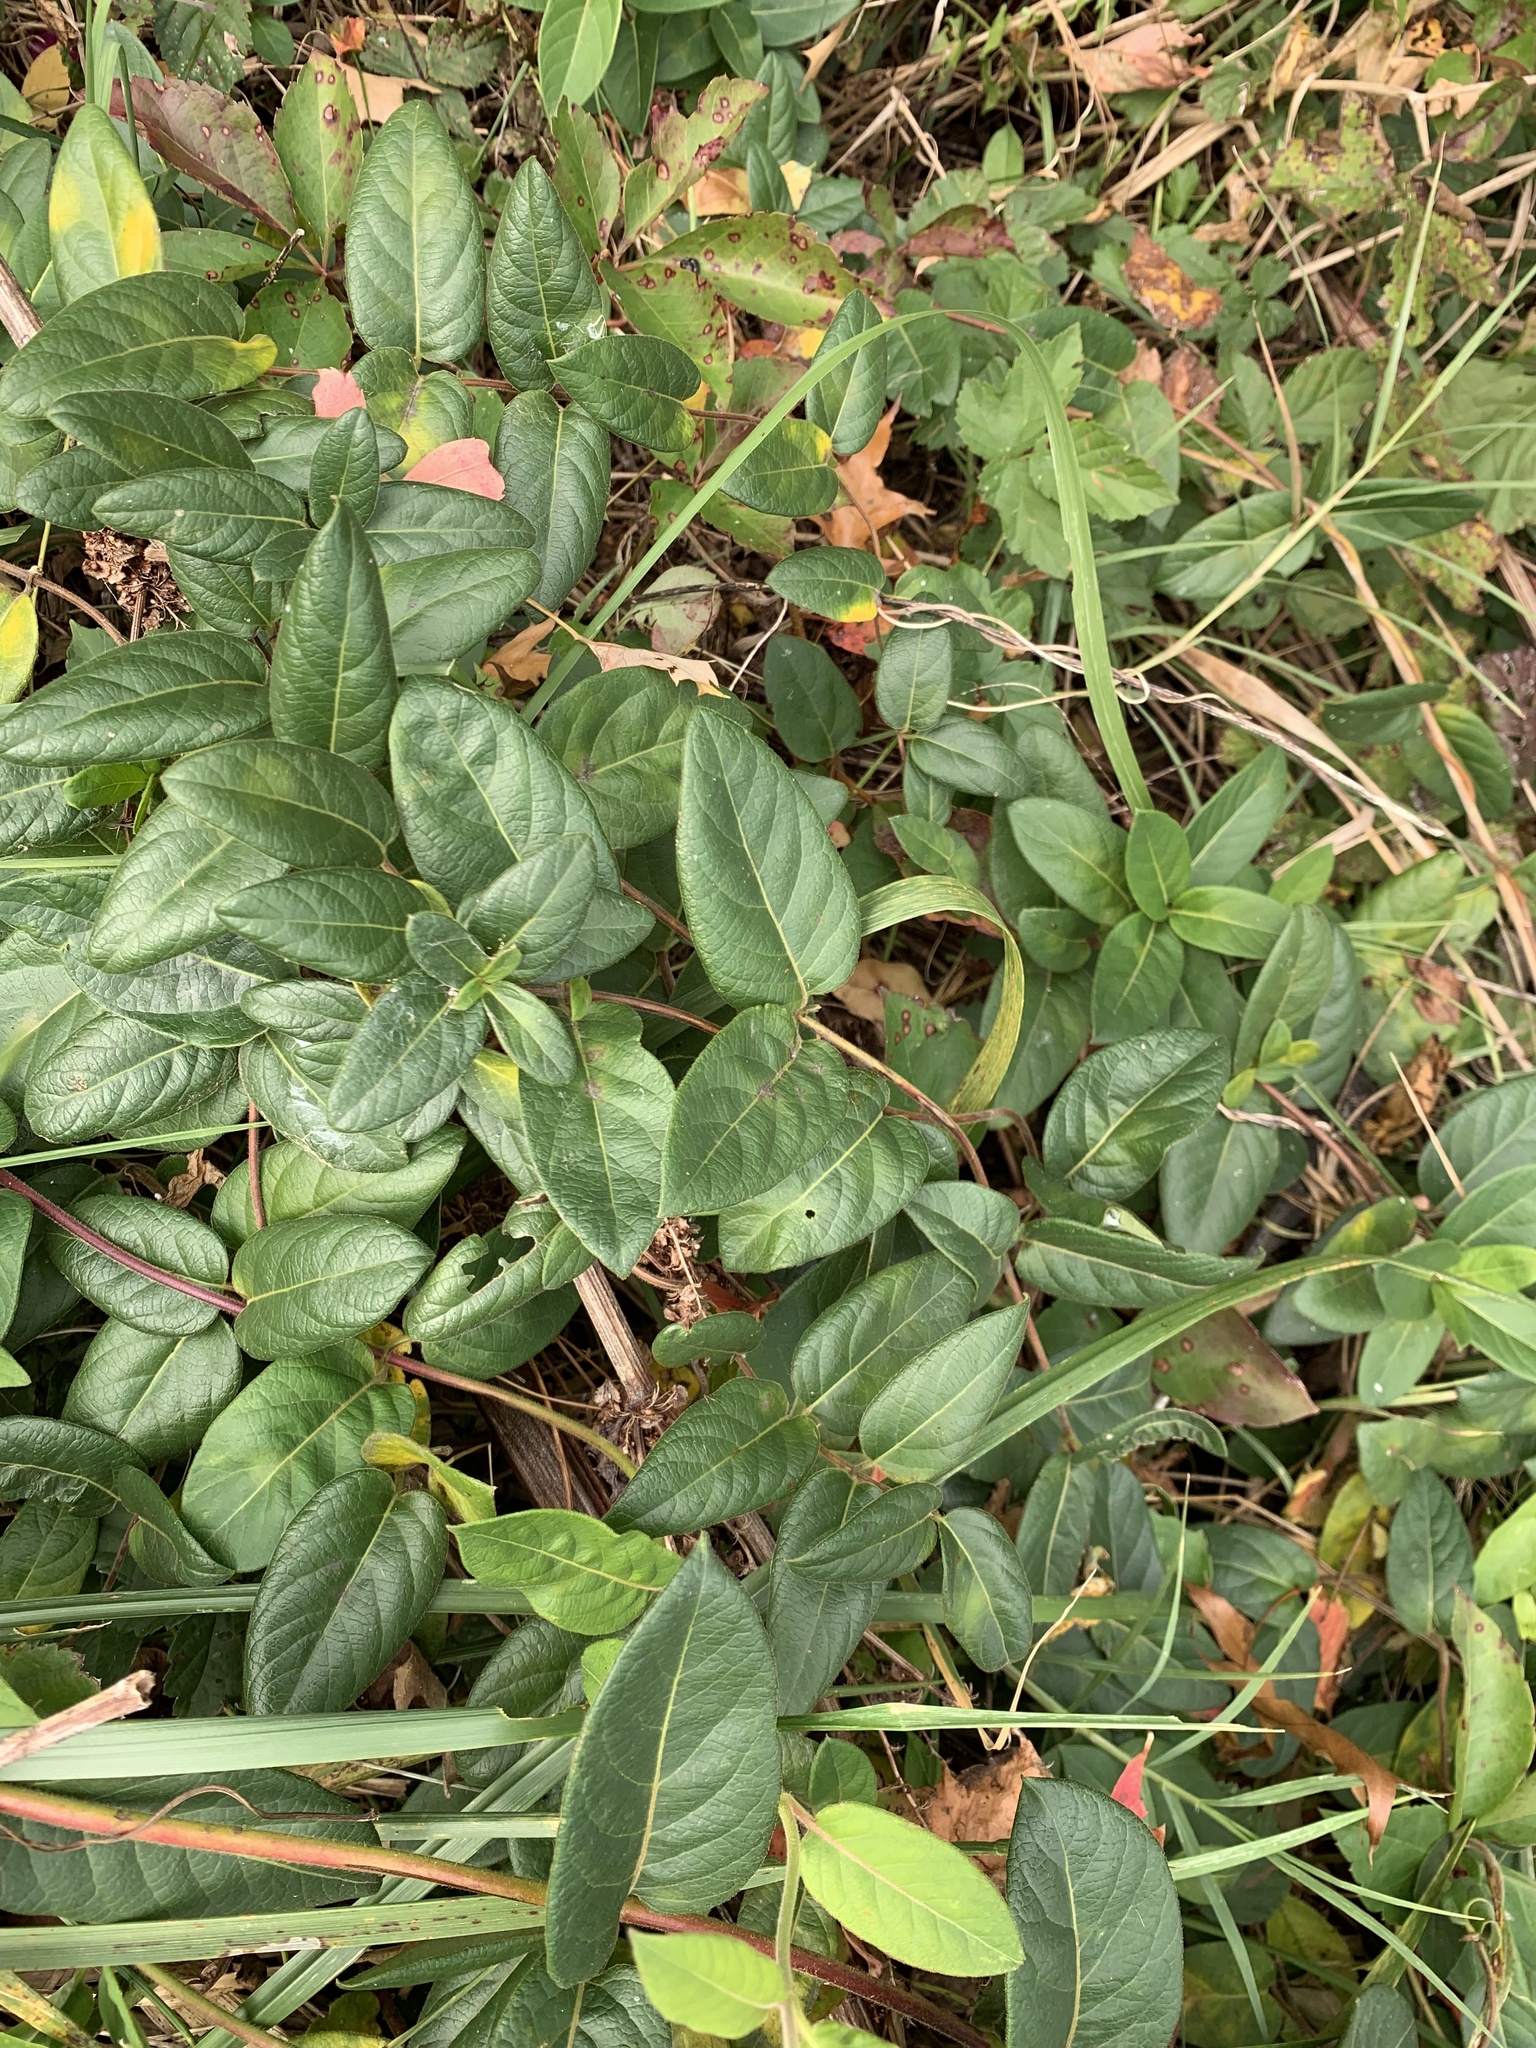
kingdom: Plantae
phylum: Tracheophyta
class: Magnoliopsida
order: Dipsacales
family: Caprifoliaceae
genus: Lonicera
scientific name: Lonicera japonica
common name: Japanese honeysuckle
